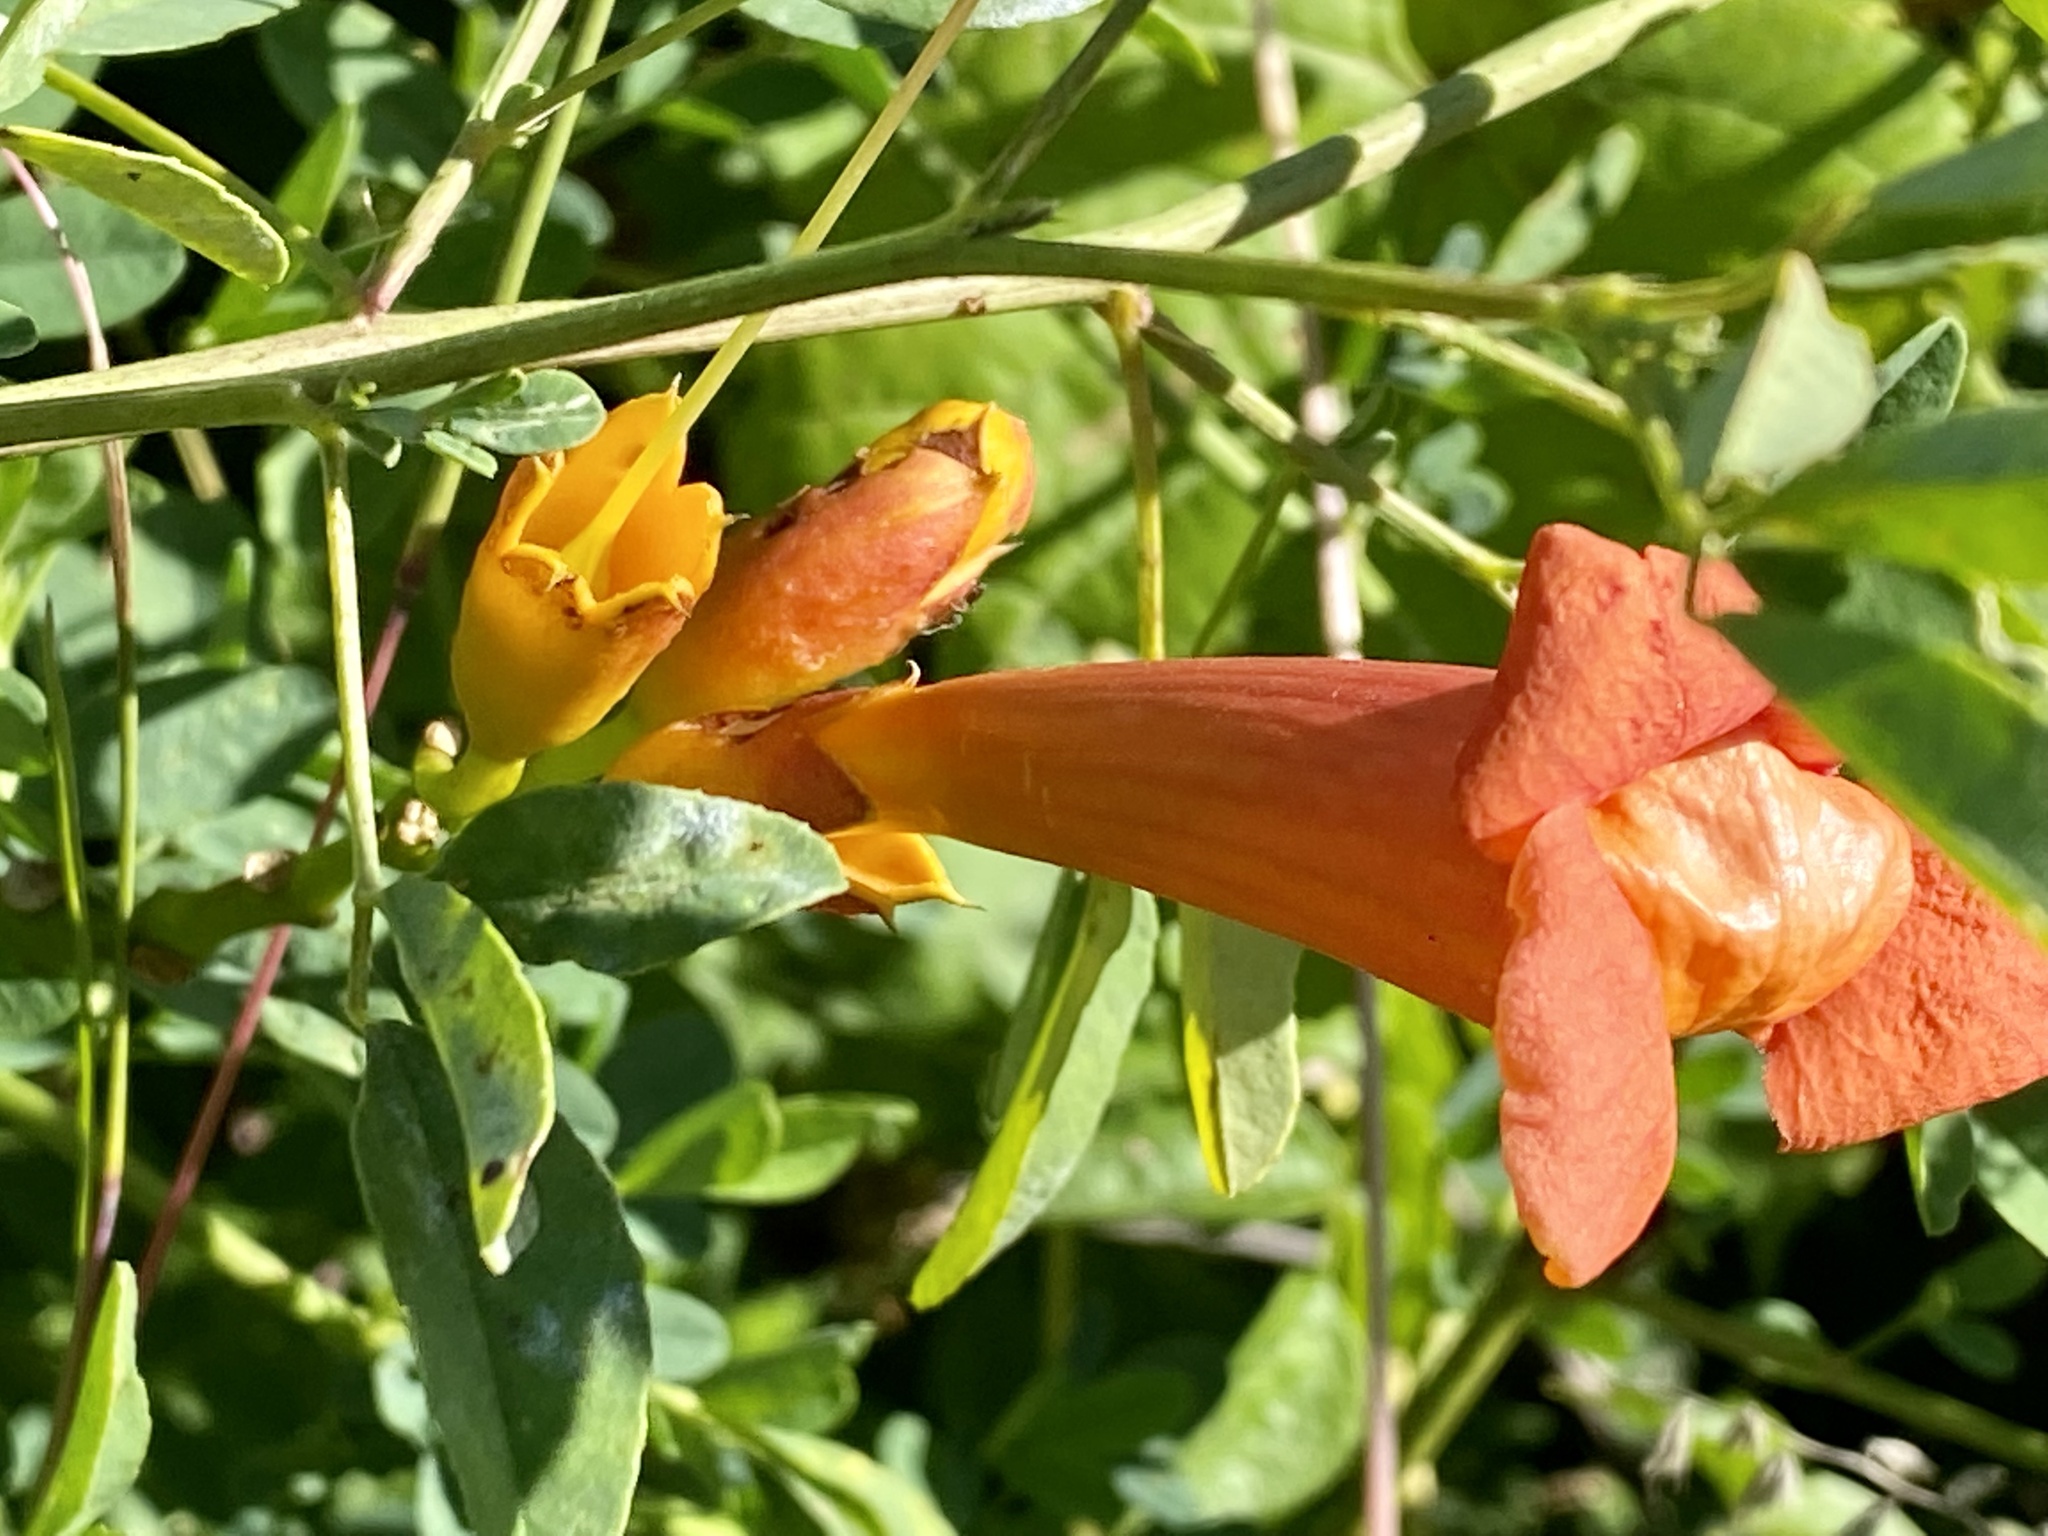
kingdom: Plantae
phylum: Tracheophyta
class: Magnoliopsida
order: Lamiales
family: Bignoniaceae
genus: Campsis
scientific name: Campsis radicans
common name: Trumpet-creeper
